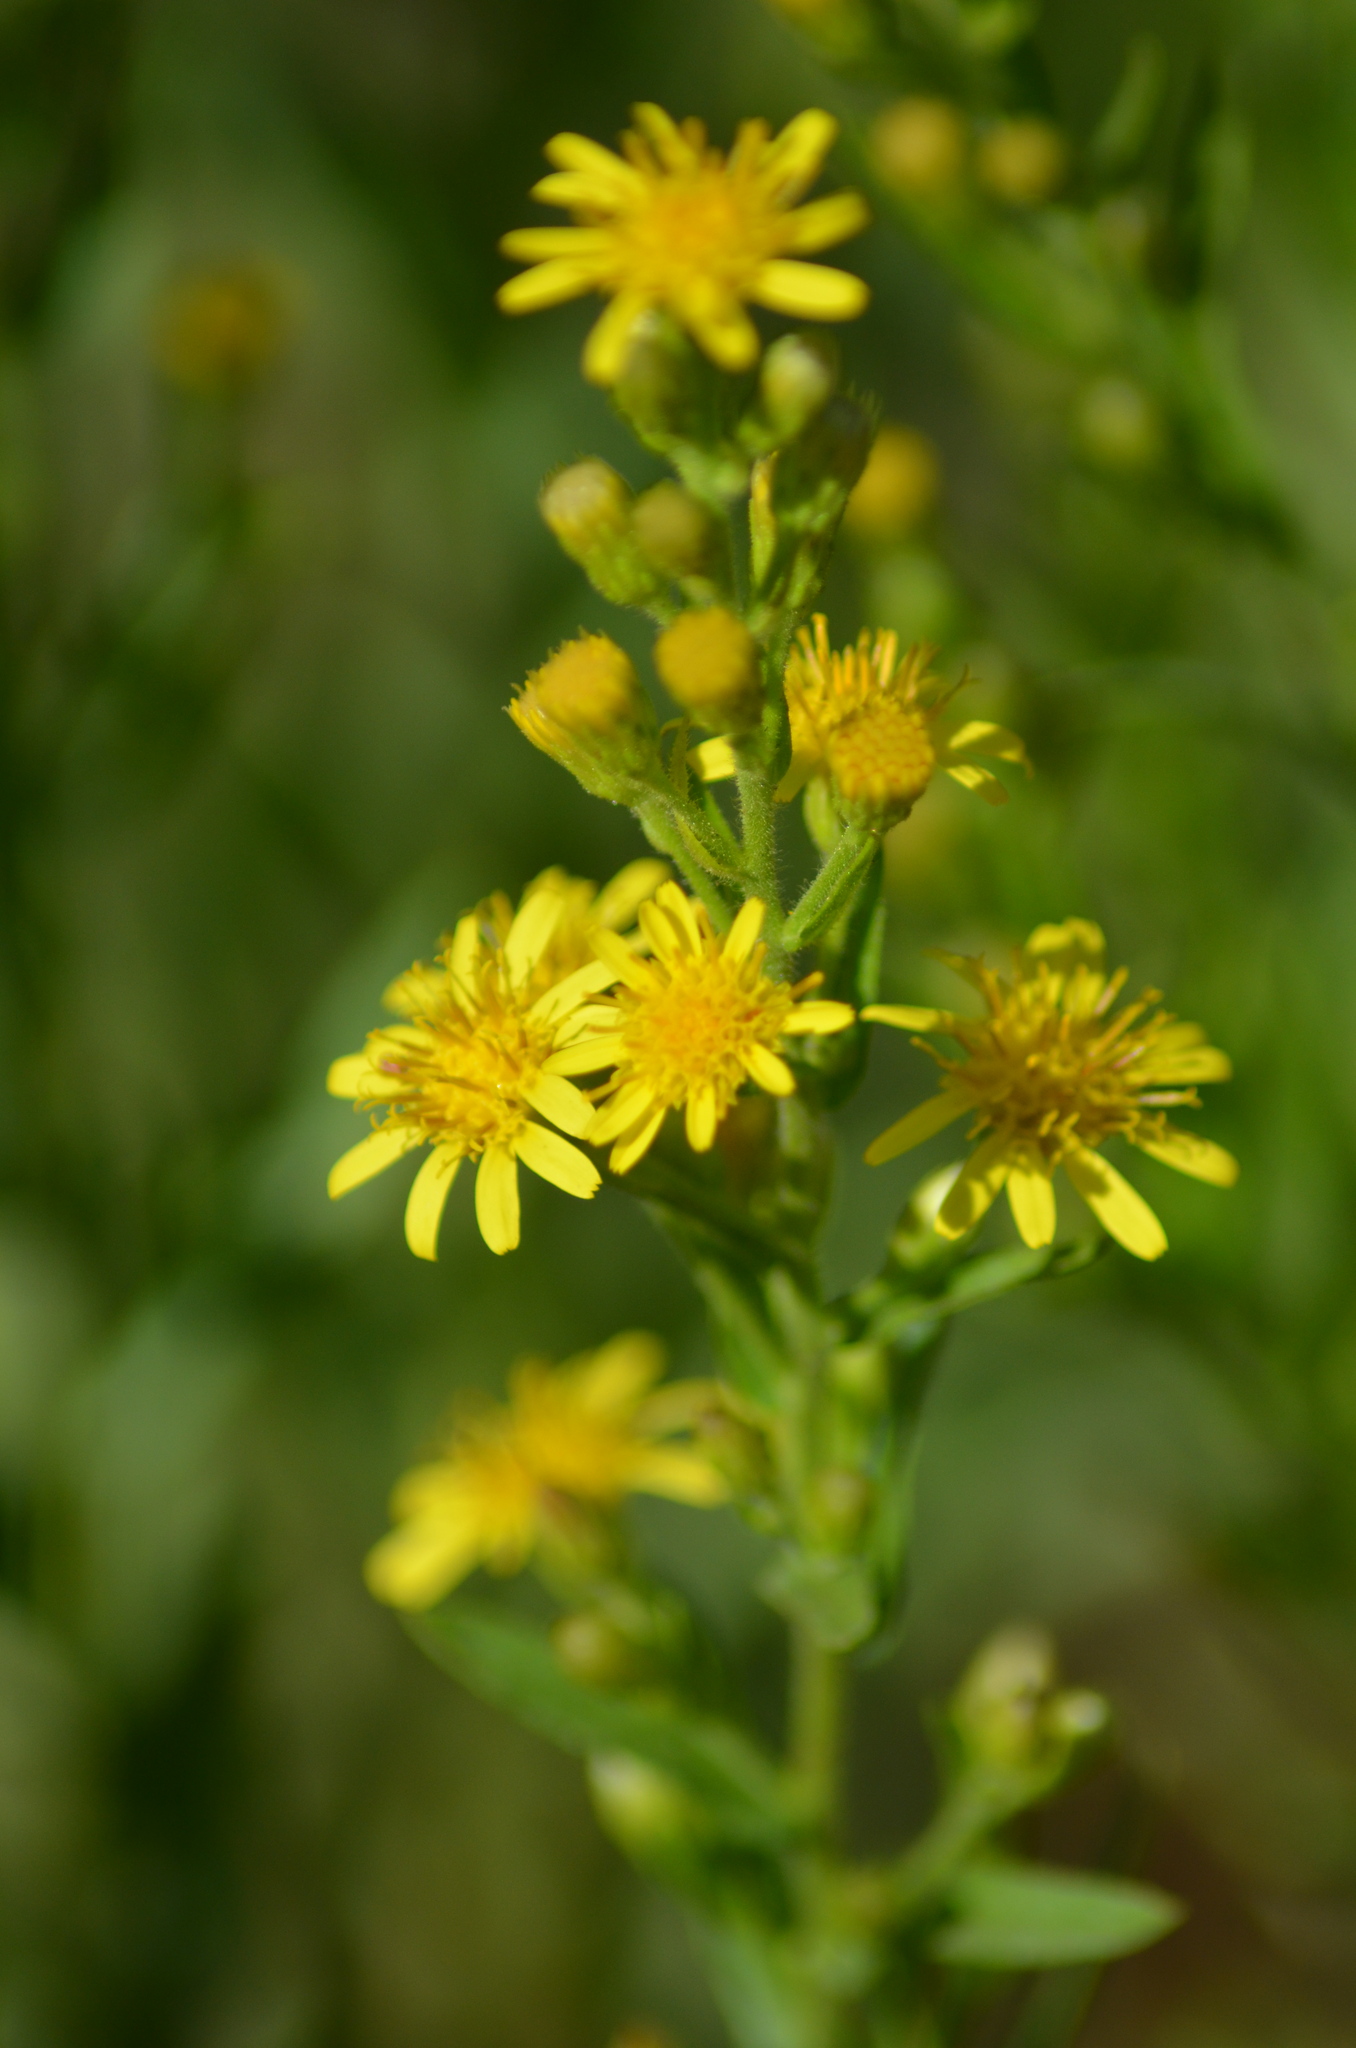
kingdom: Plantae
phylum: Tracheophyta
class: Magnoliopsida
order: Asterales
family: Asteraceae
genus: Dittrichia
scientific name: Dittrichia viscosa
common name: Woody fleabane
